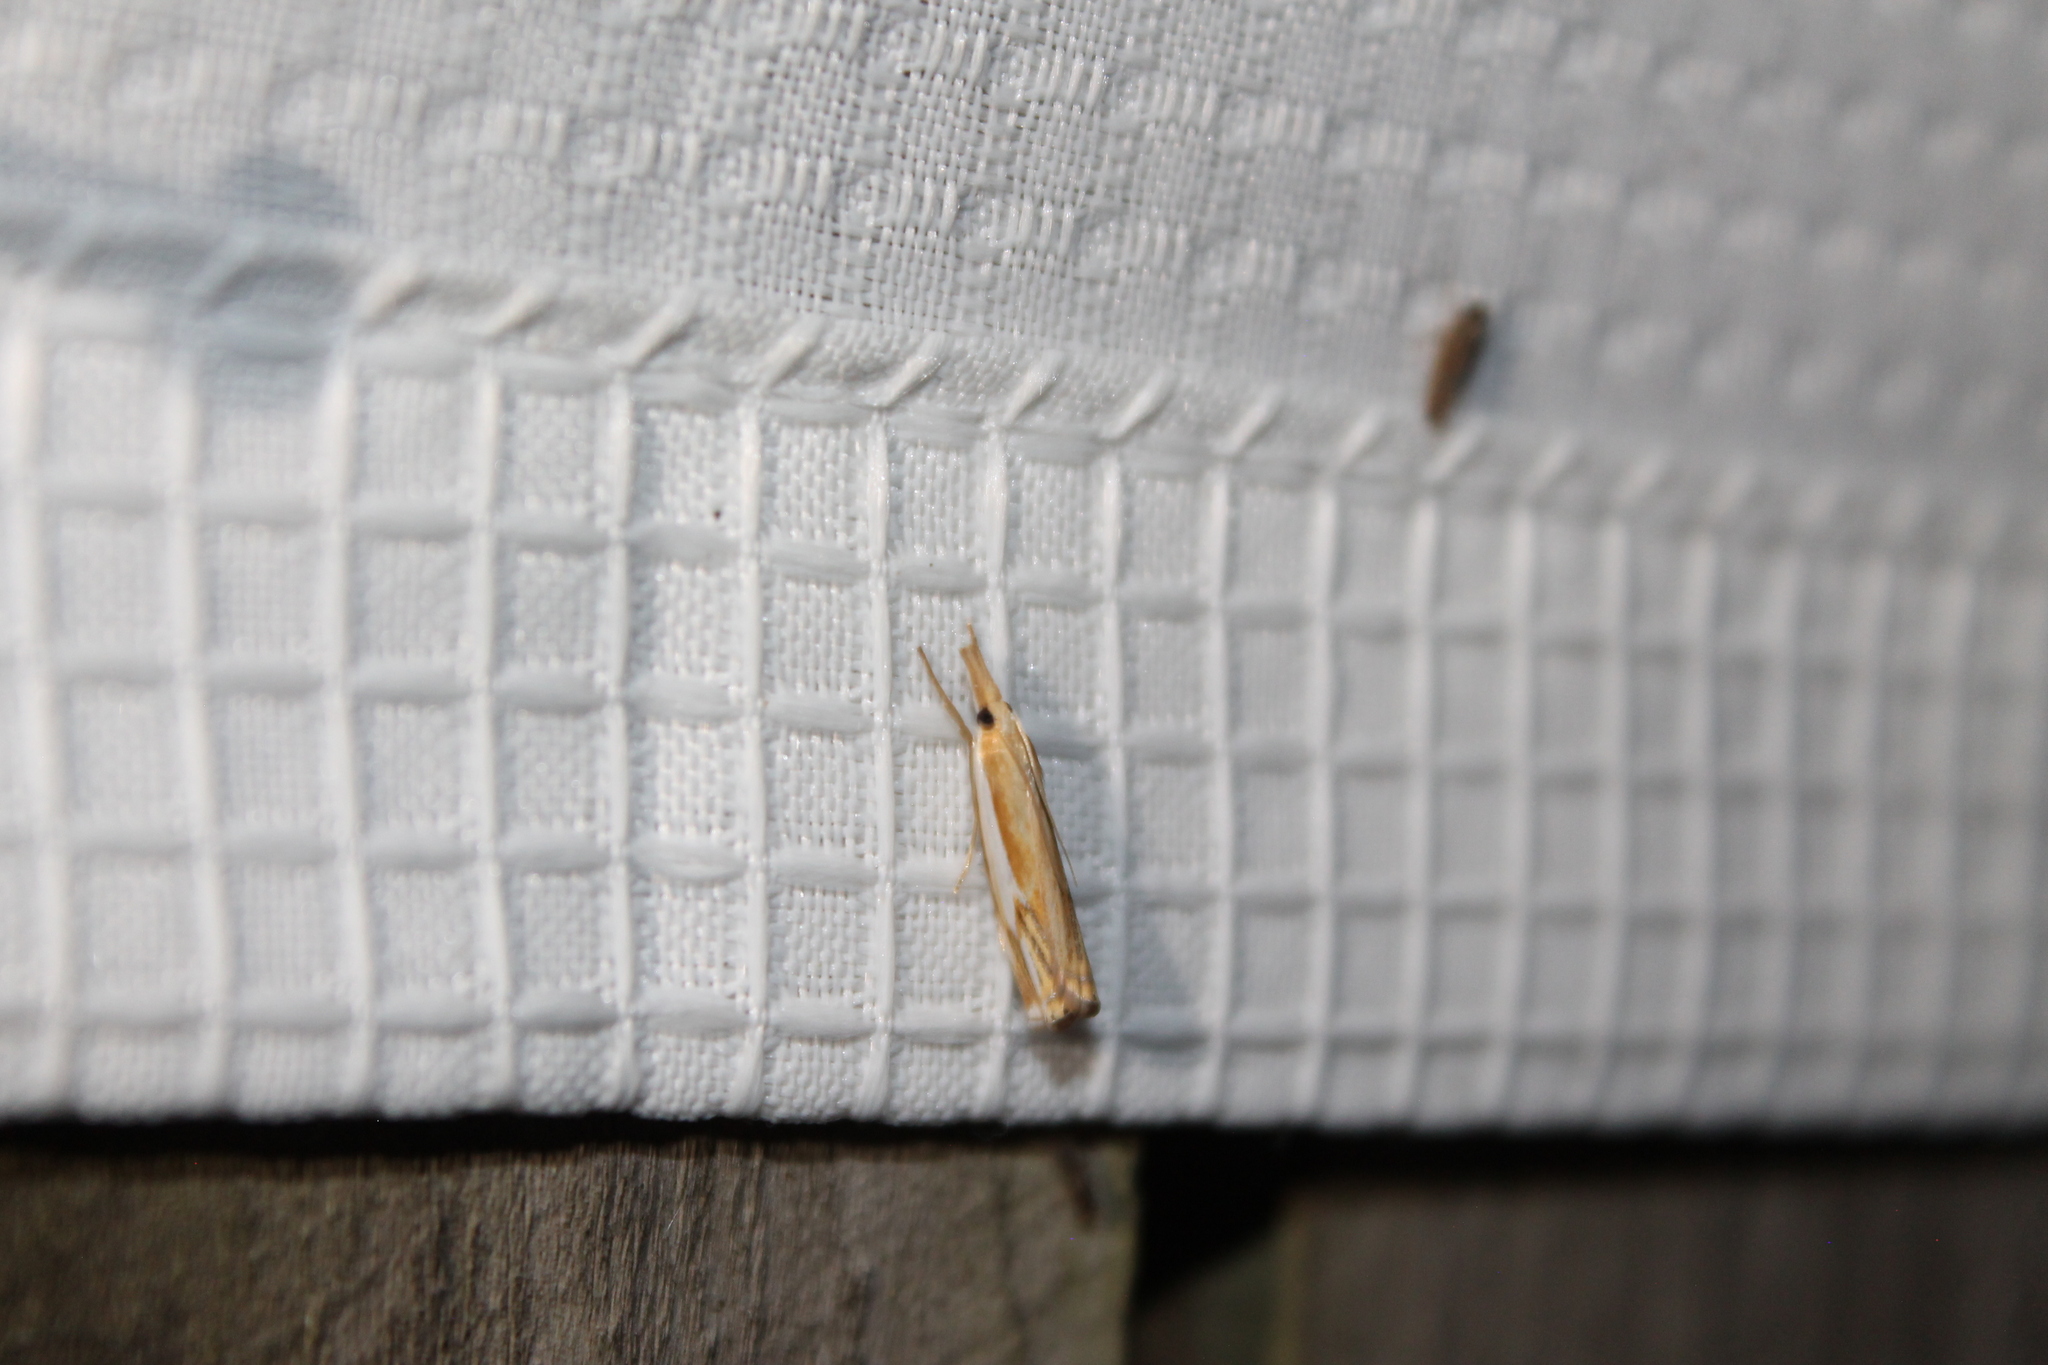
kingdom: Animalia
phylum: Arthropoda
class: Insecta
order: Lepidoptera
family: Crambidae
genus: Crambus
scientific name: Crambus agitatellus
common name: Double-banded grass-veneer
